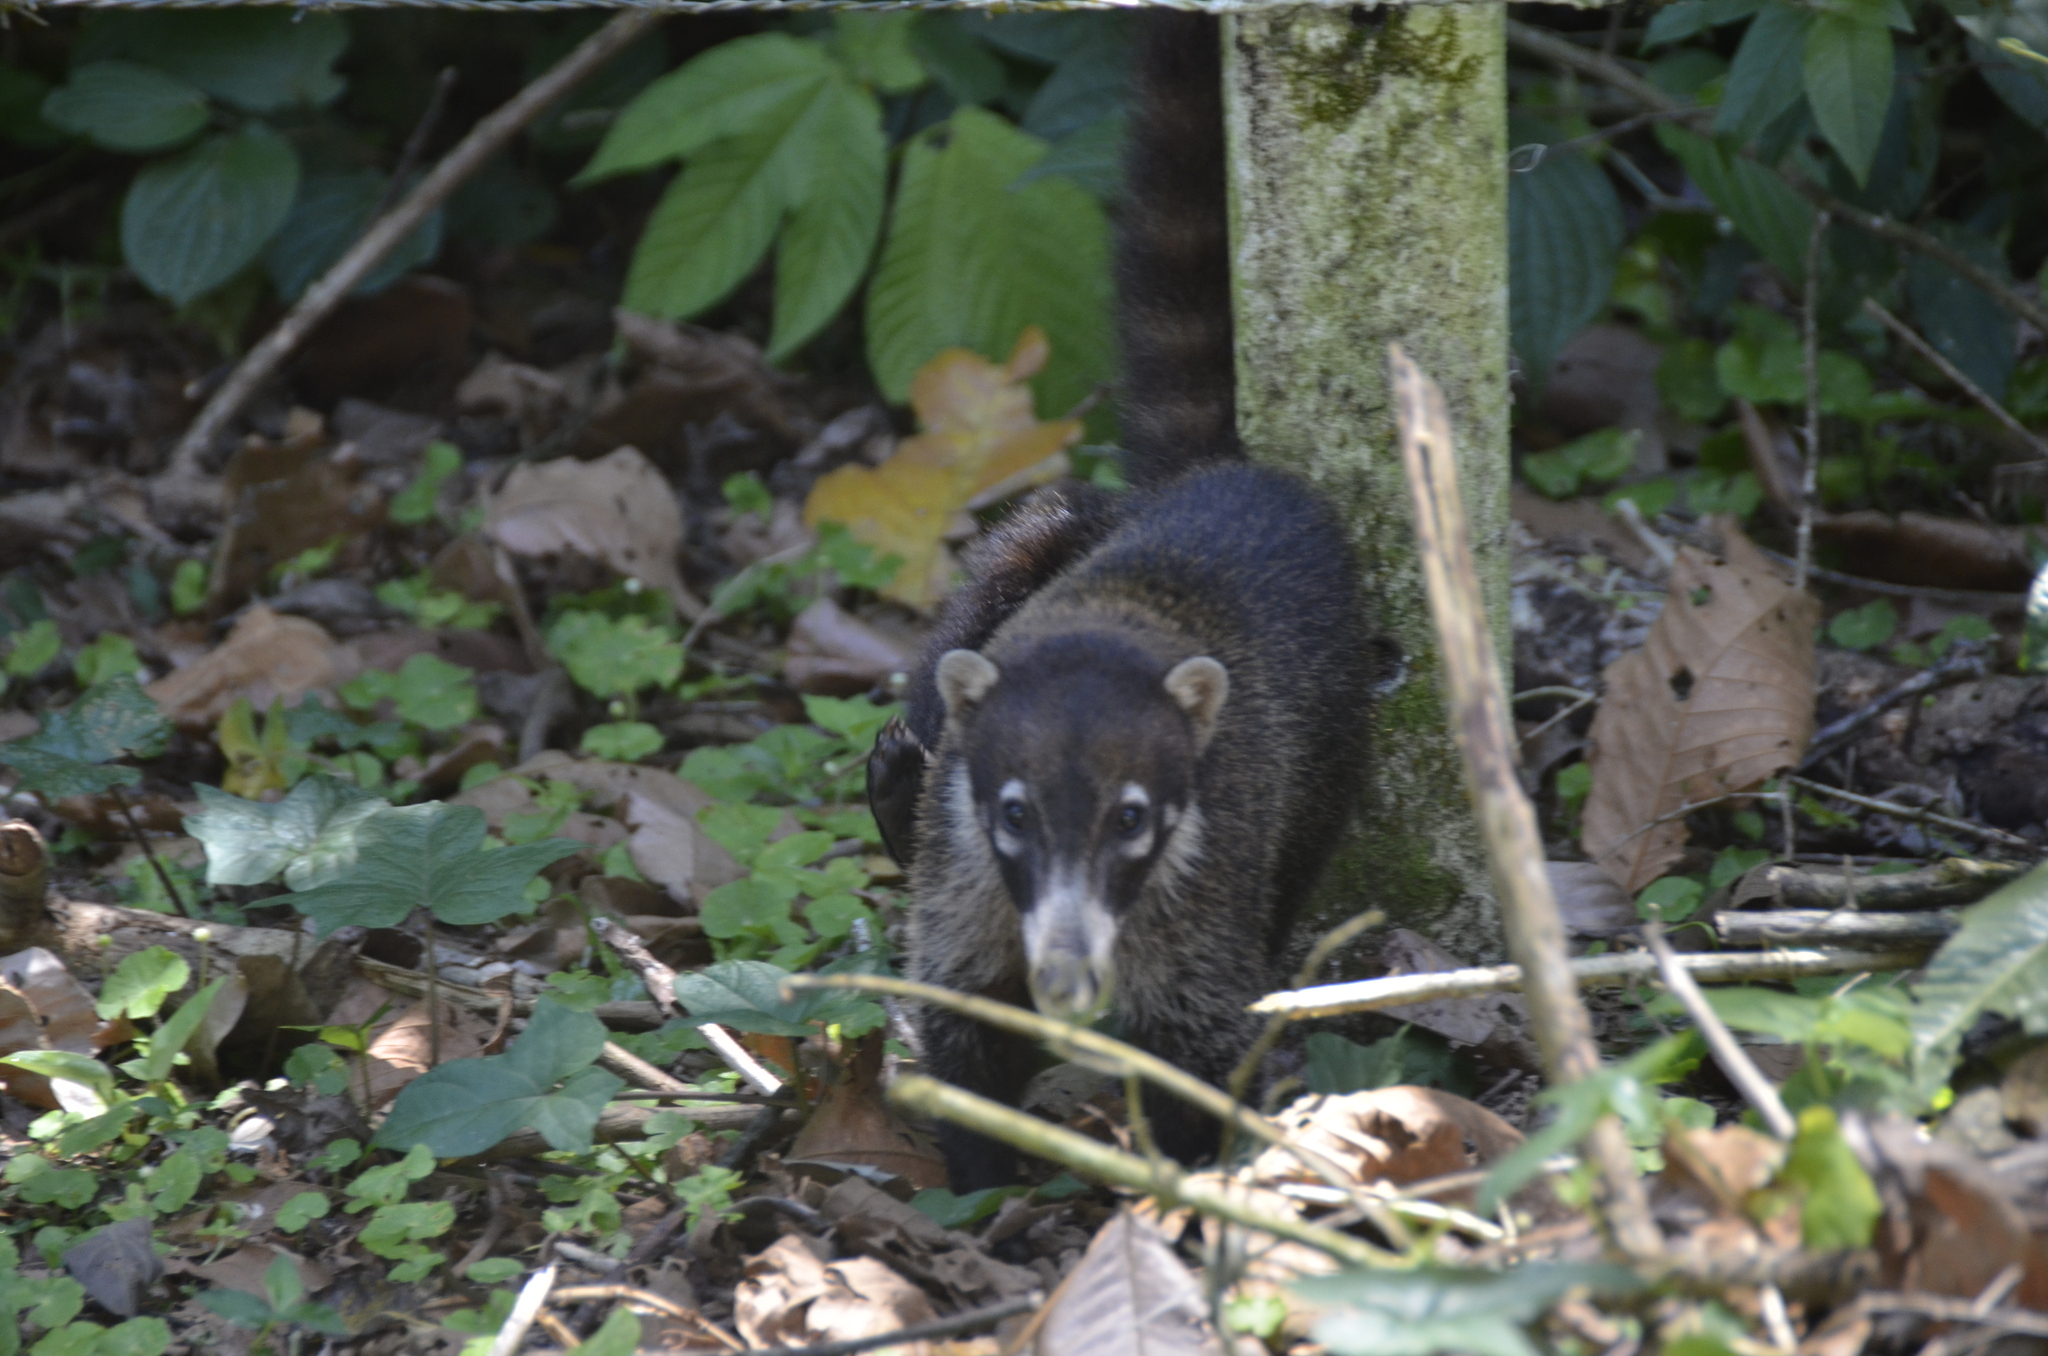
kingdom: Animalia
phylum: Chordata
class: Mammalia
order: Carnivora
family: Procyonidae
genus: Nasua
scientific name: Nasua narica
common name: White-nosed coati
